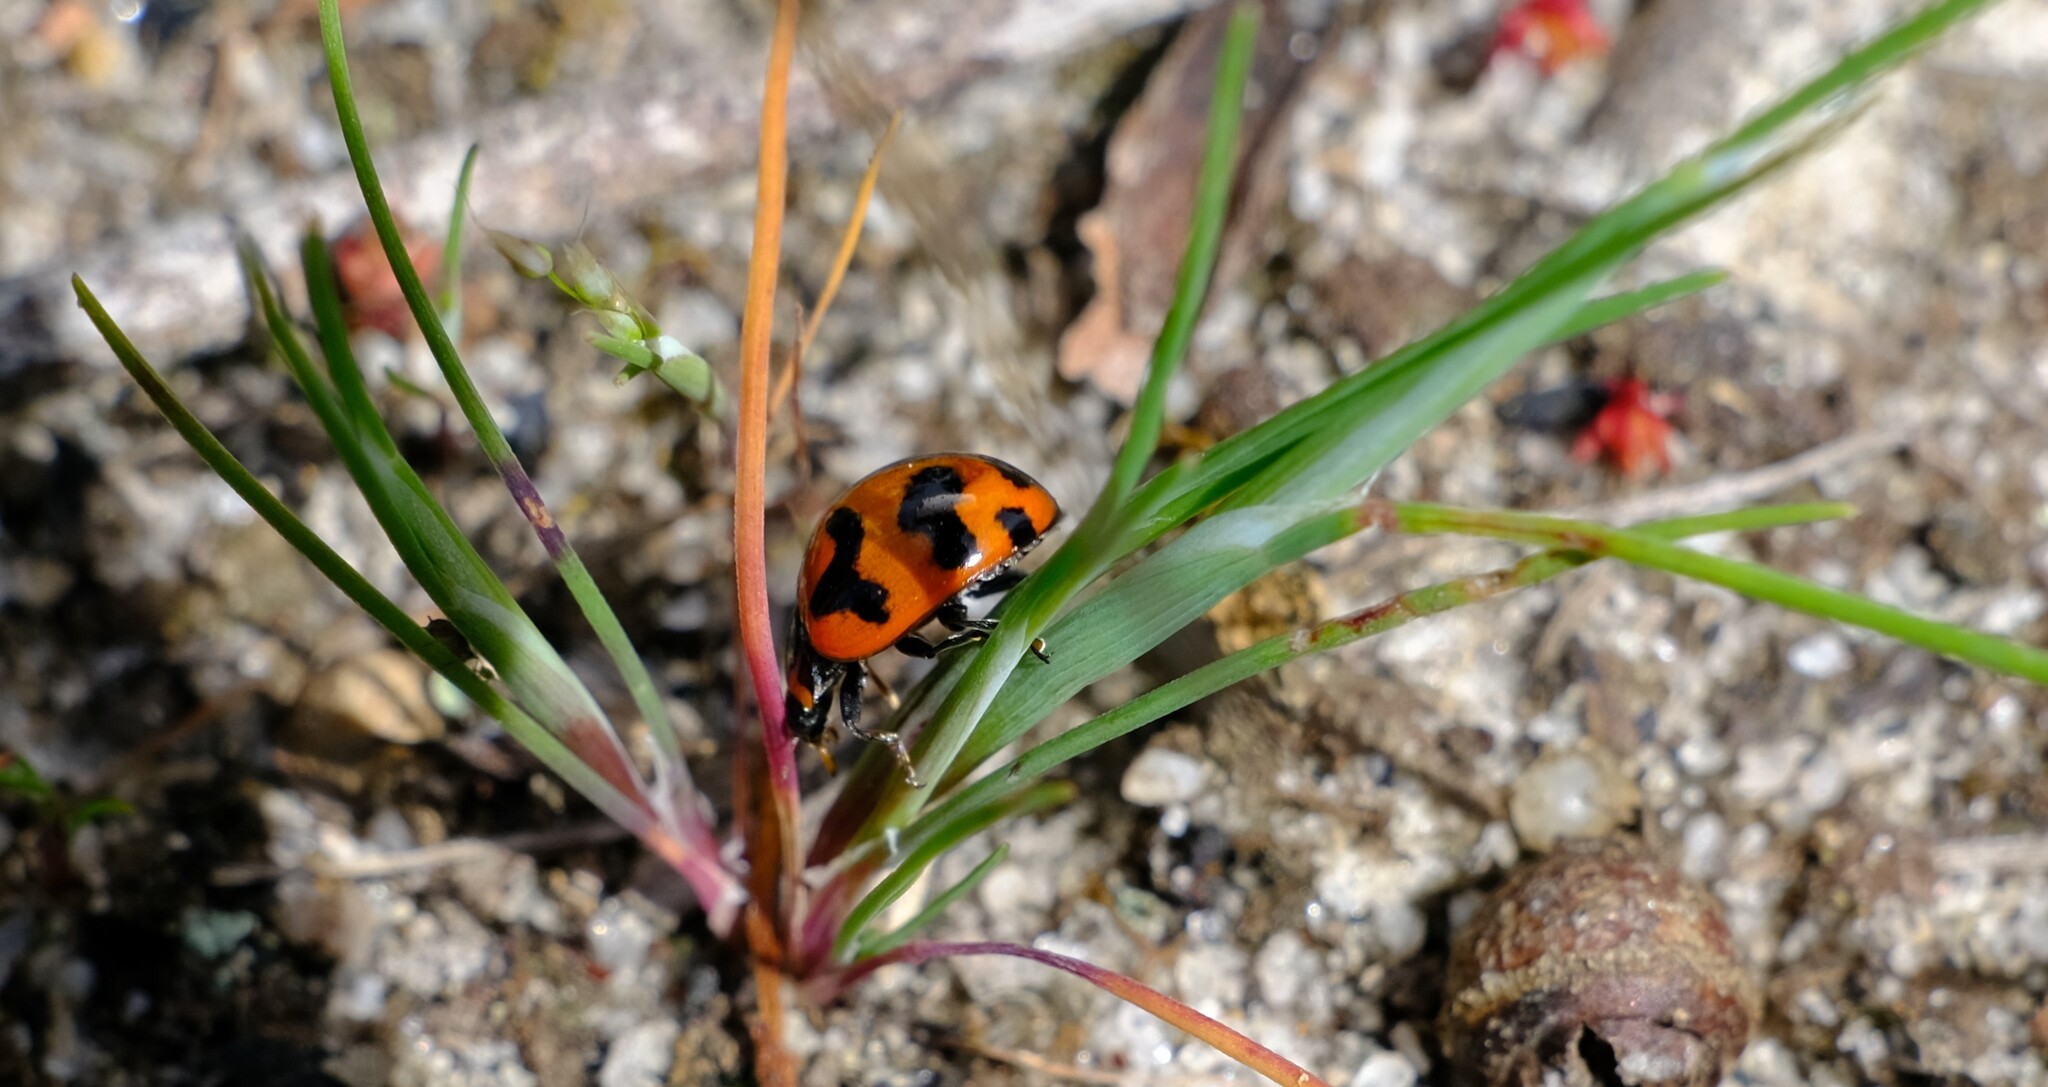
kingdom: Animalia
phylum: Arthropoda
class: Insecta
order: Coleoptera
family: Coccinellidae
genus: Coccinella
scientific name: Coccinella transversalis
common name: Transverse lady beetle
